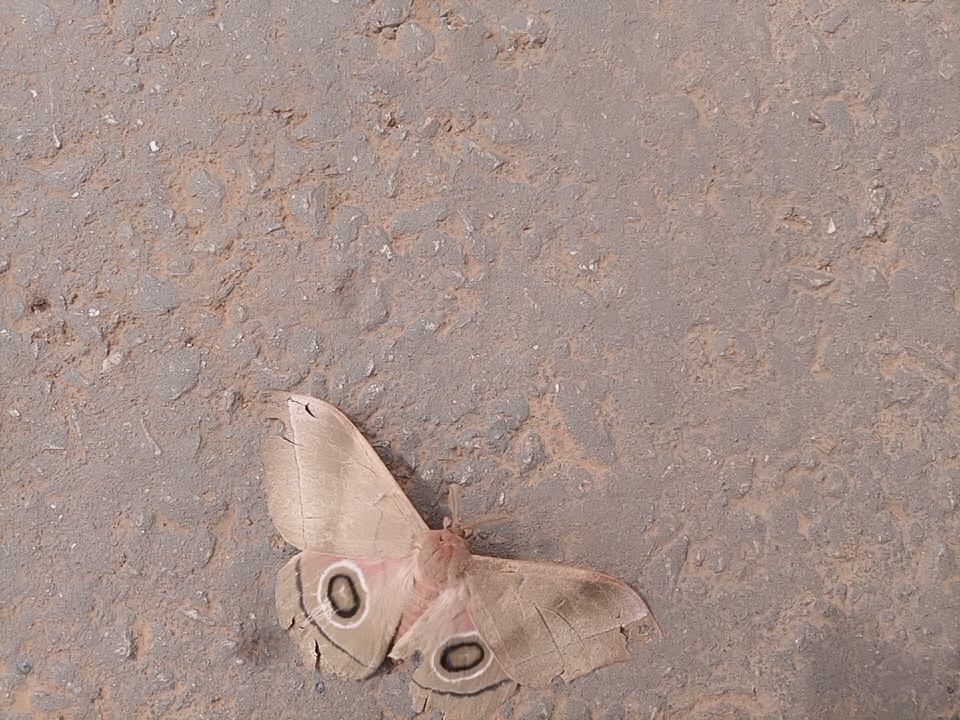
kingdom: Animalia
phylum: Arthropoda
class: Insecta
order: Lepidoptera
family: Saturniidae
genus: Gonimbrasia
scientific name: Gonimbrasia hecate
